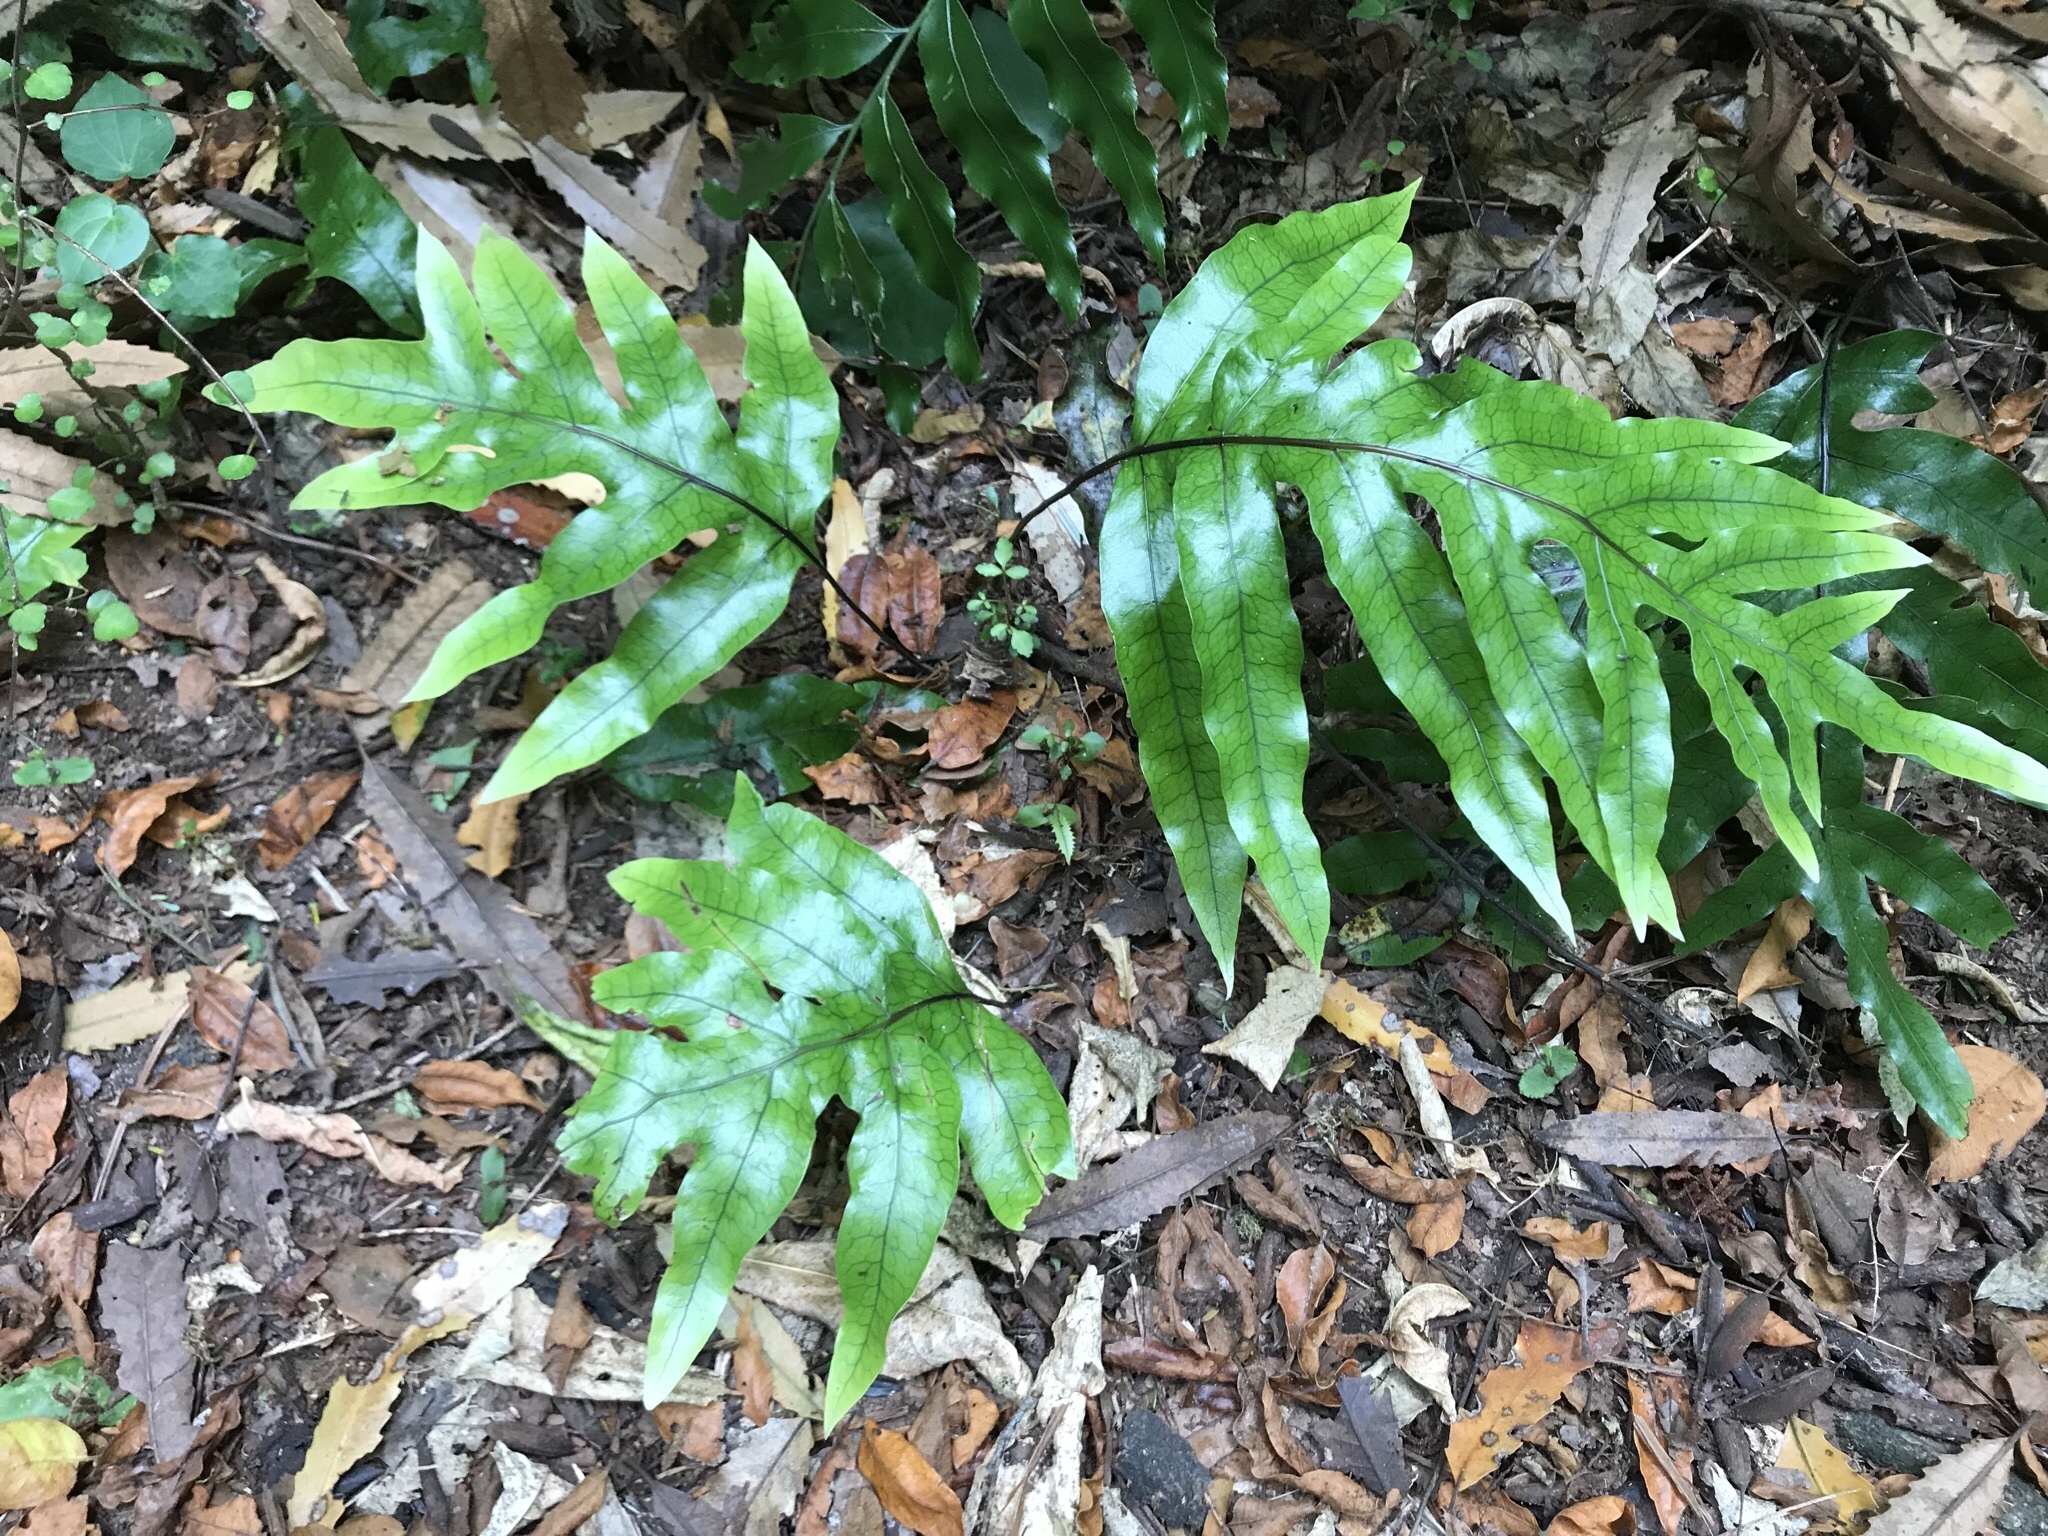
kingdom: Plantae
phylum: Tracheophyta
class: Polypodiopsida
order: Polypodiales
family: Polypodiaceae
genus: Lecanopteris
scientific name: Lecanopteris pustulata
